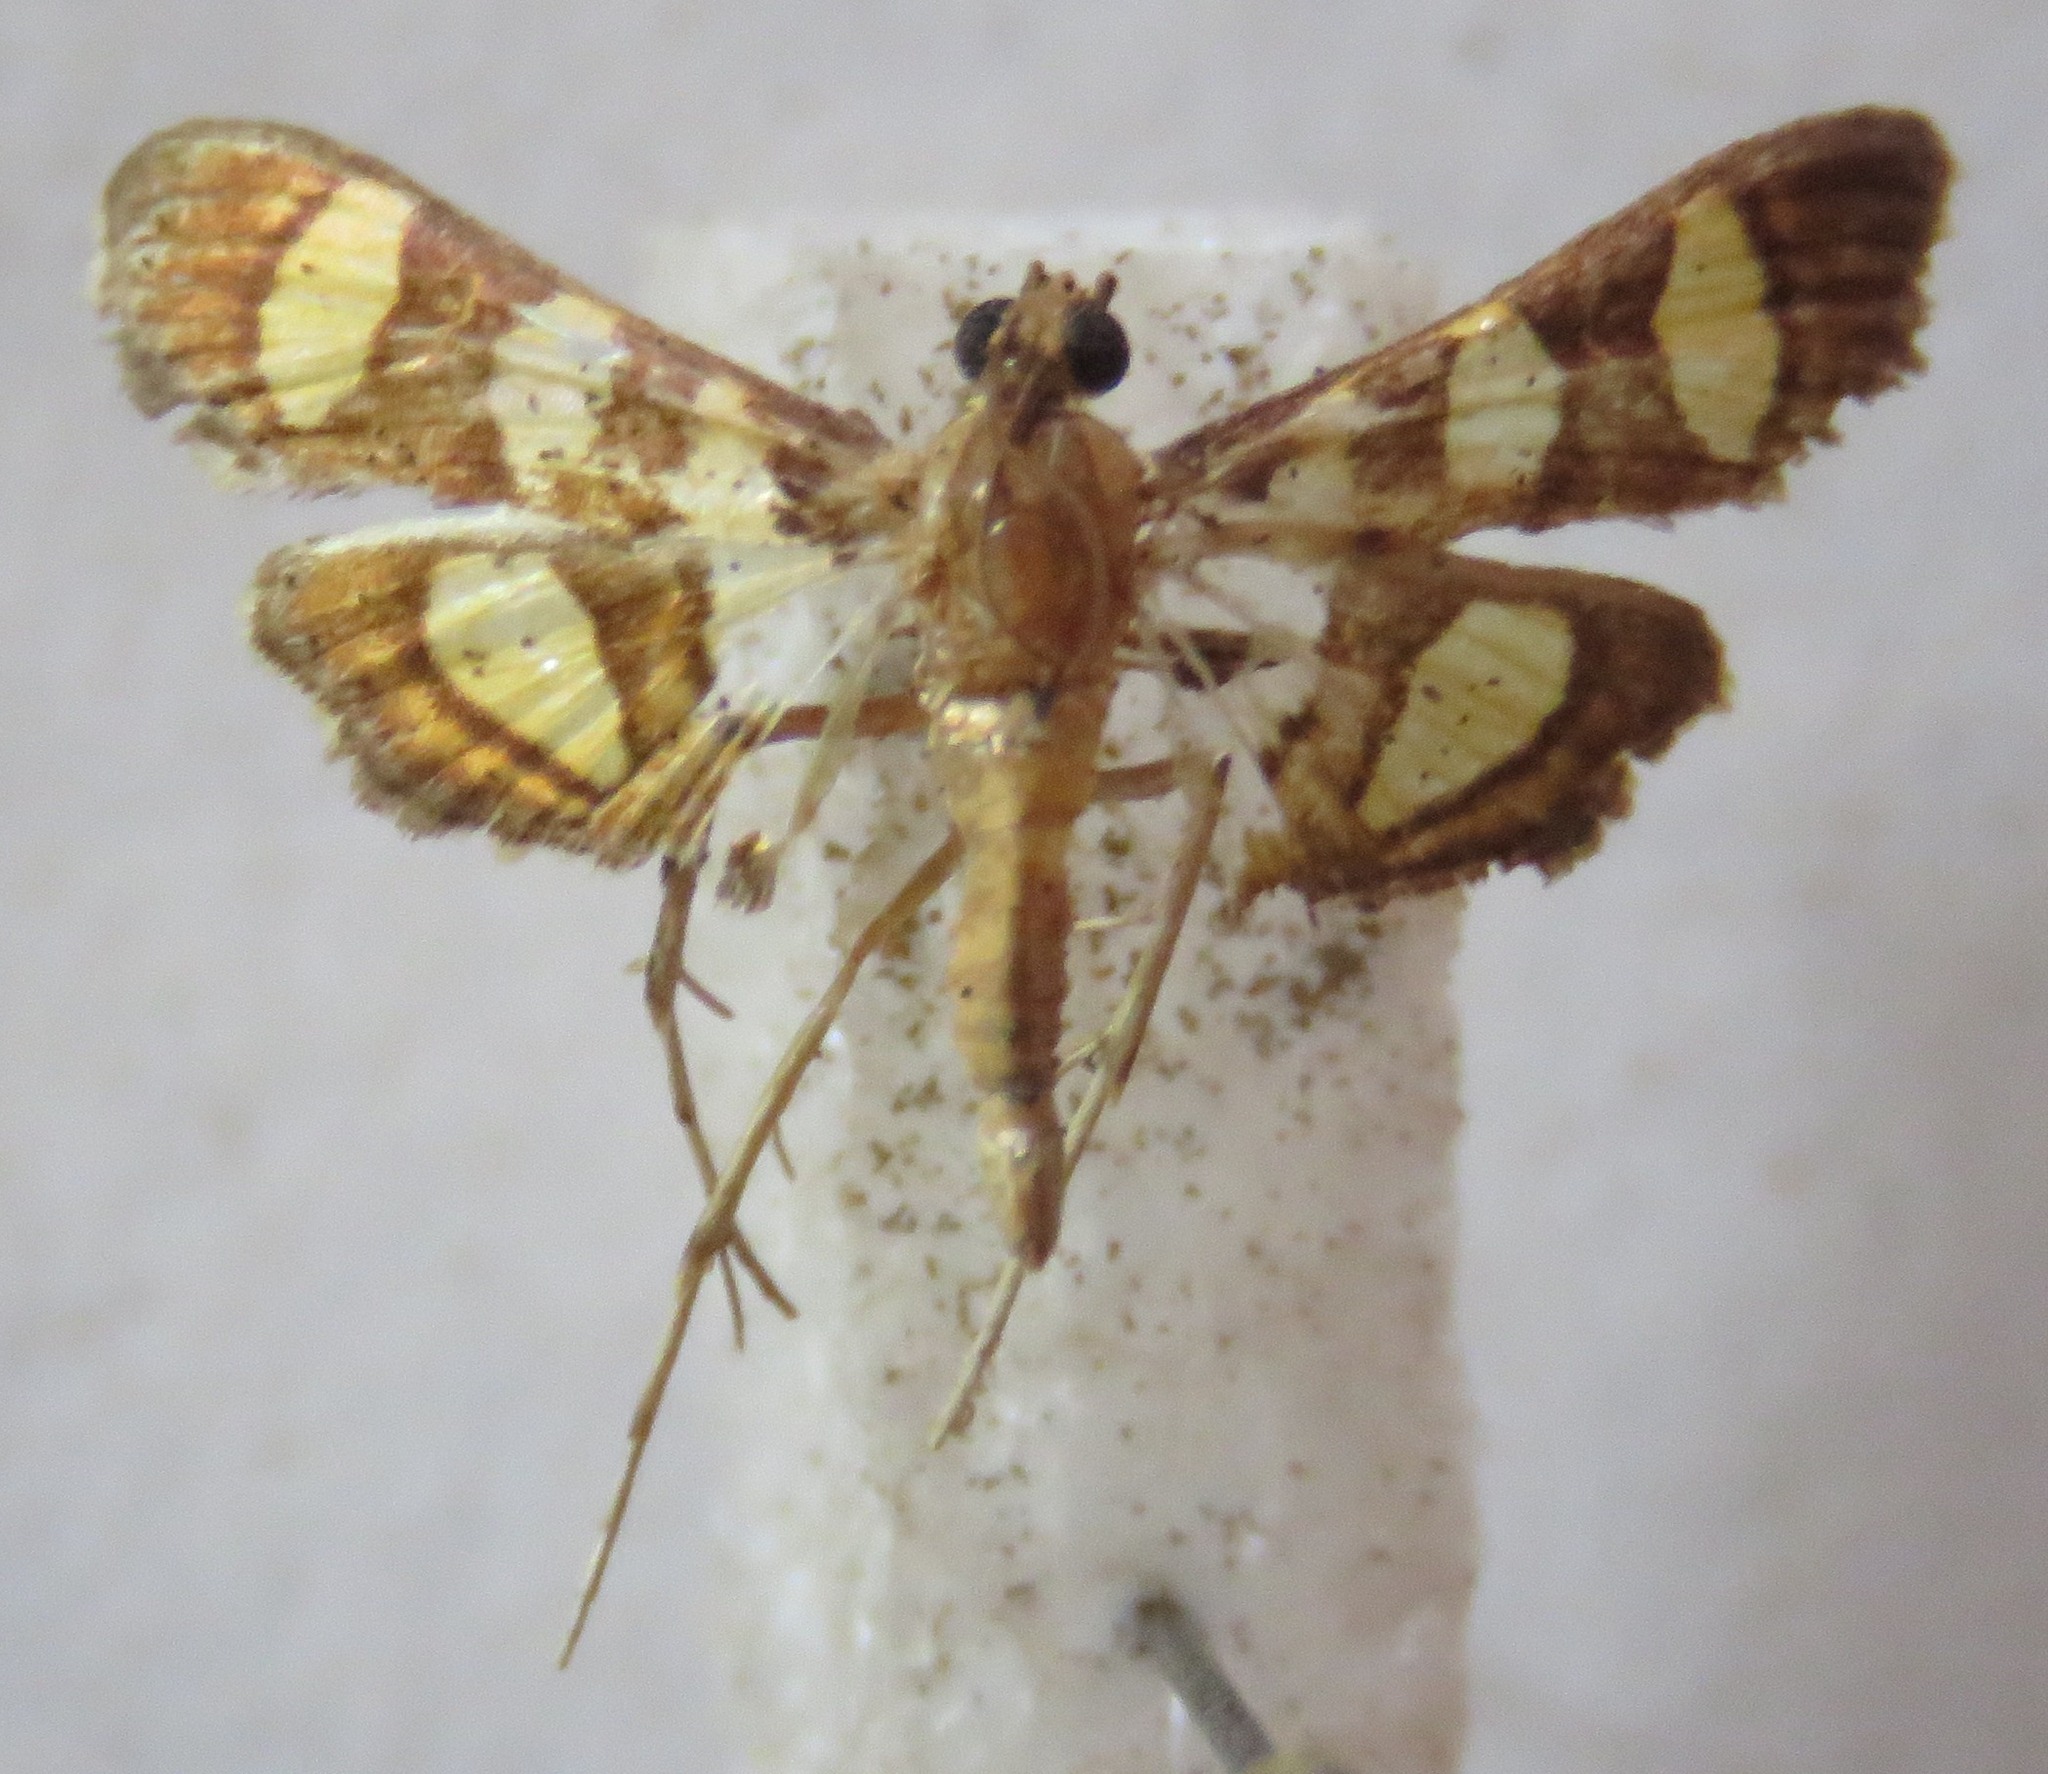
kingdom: Animalia
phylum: Arthropoda
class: Insecta
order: Lepidoptera
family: Crambidae
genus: Syngamia
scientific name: Syngamia florella
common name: Orange-spotted flower moth
